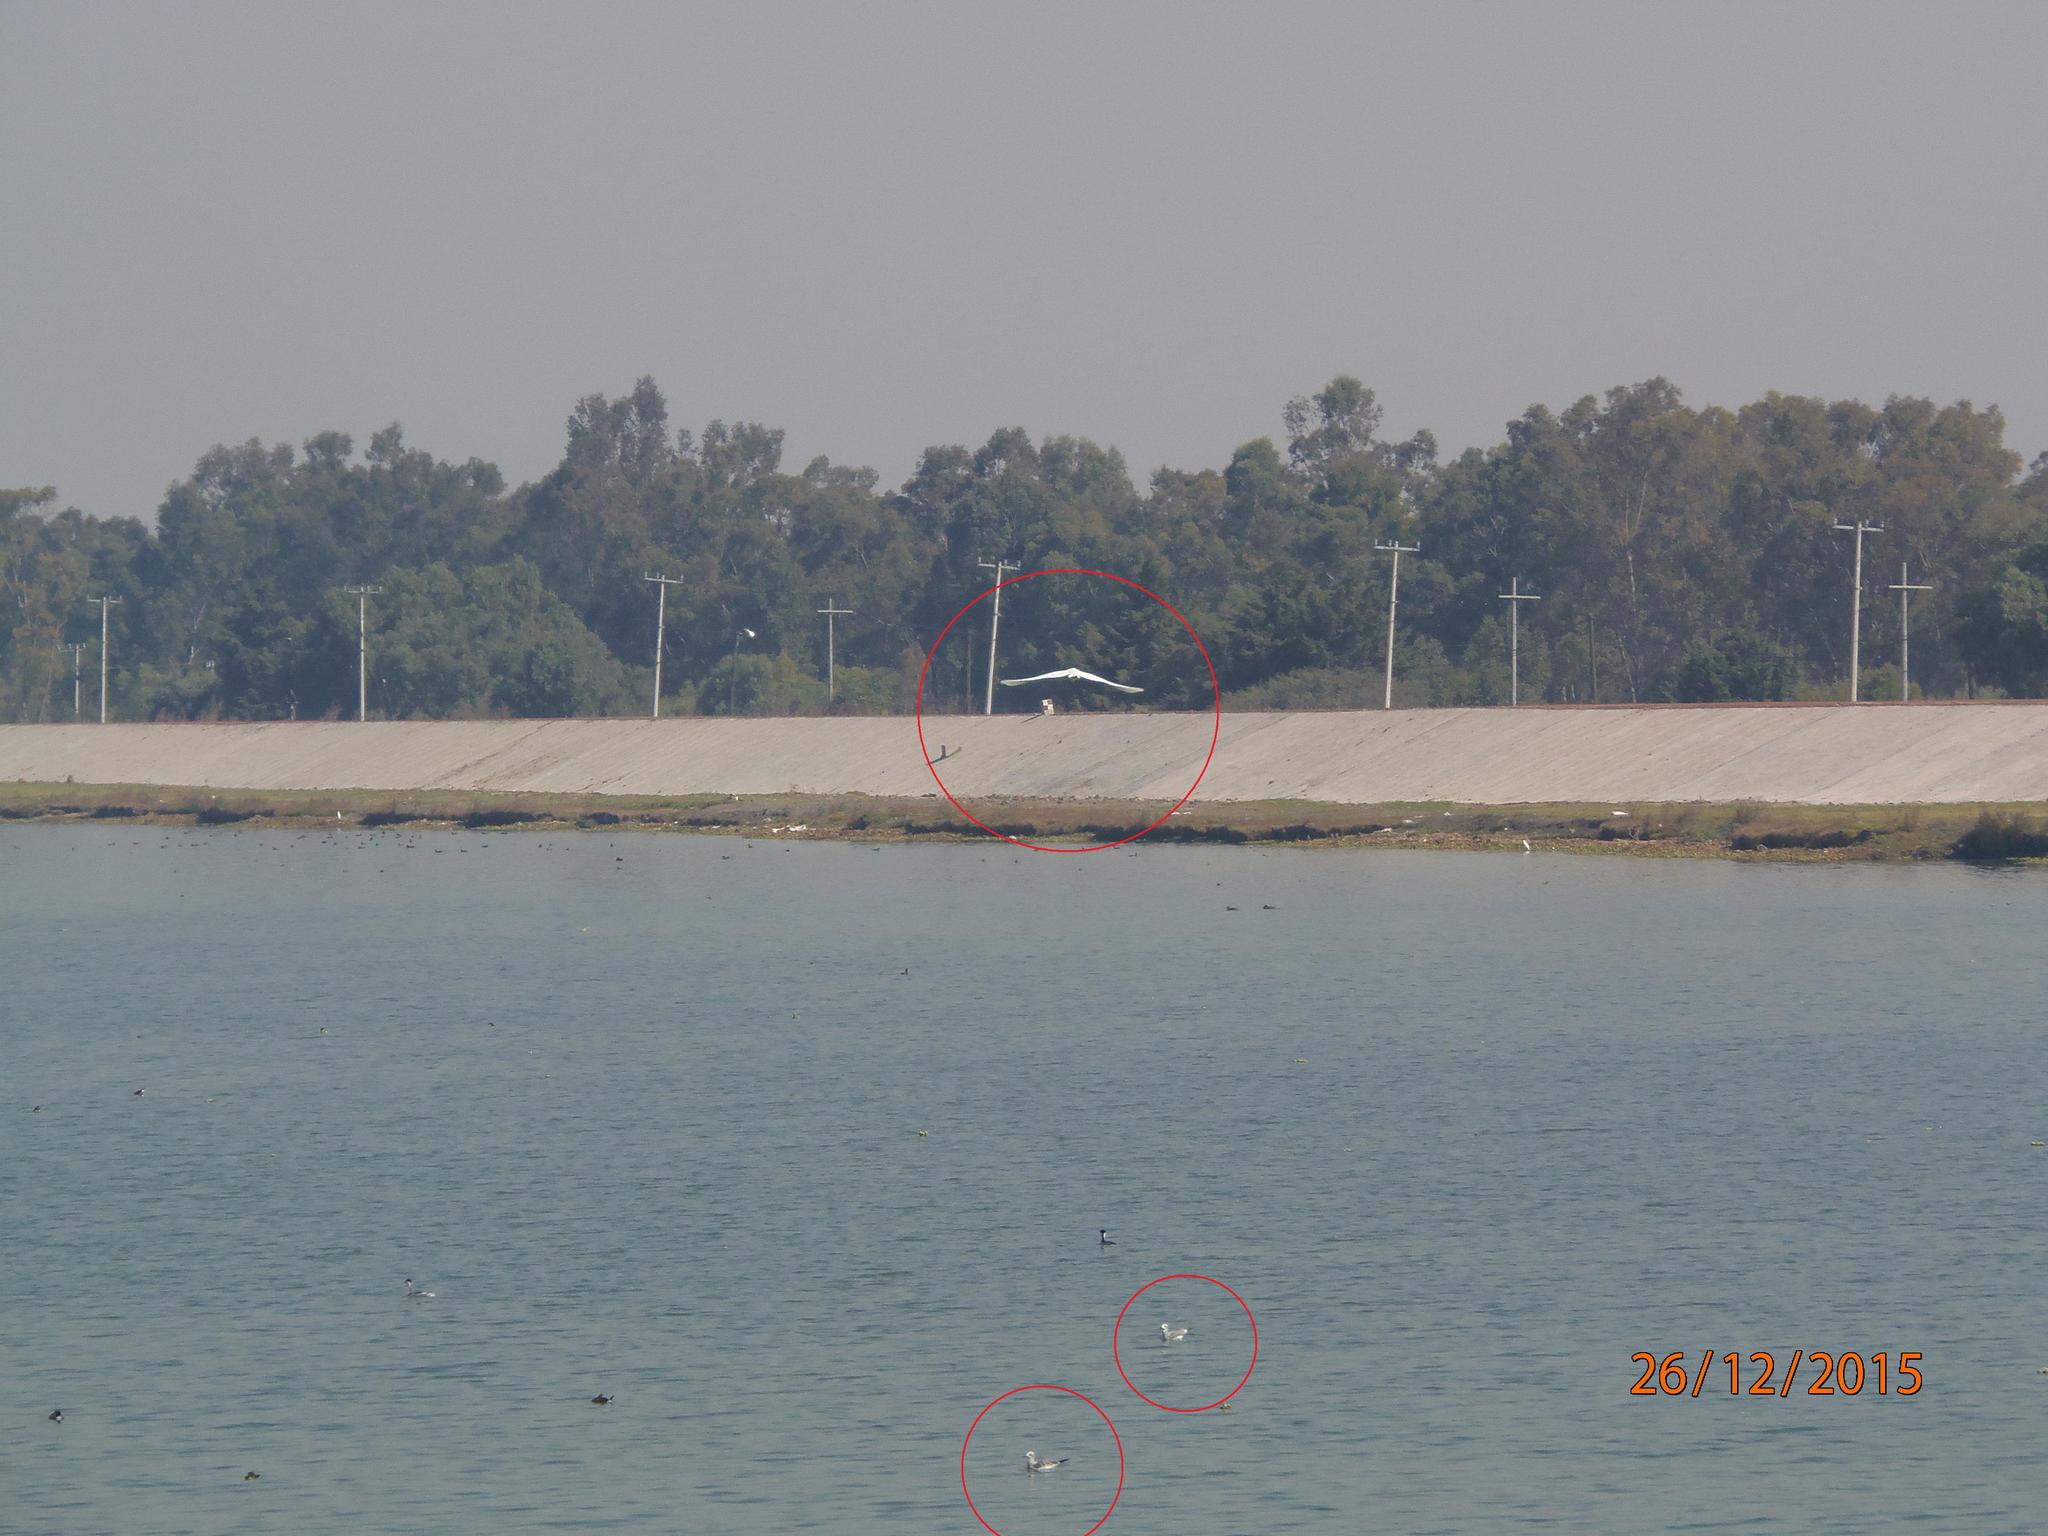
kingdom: Animalia
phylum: Chordata
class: Aves
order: Charadriiformes
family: Laridae
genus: Leucophaeus
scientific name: Leucophaeus atricilla
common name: Laughing gull
